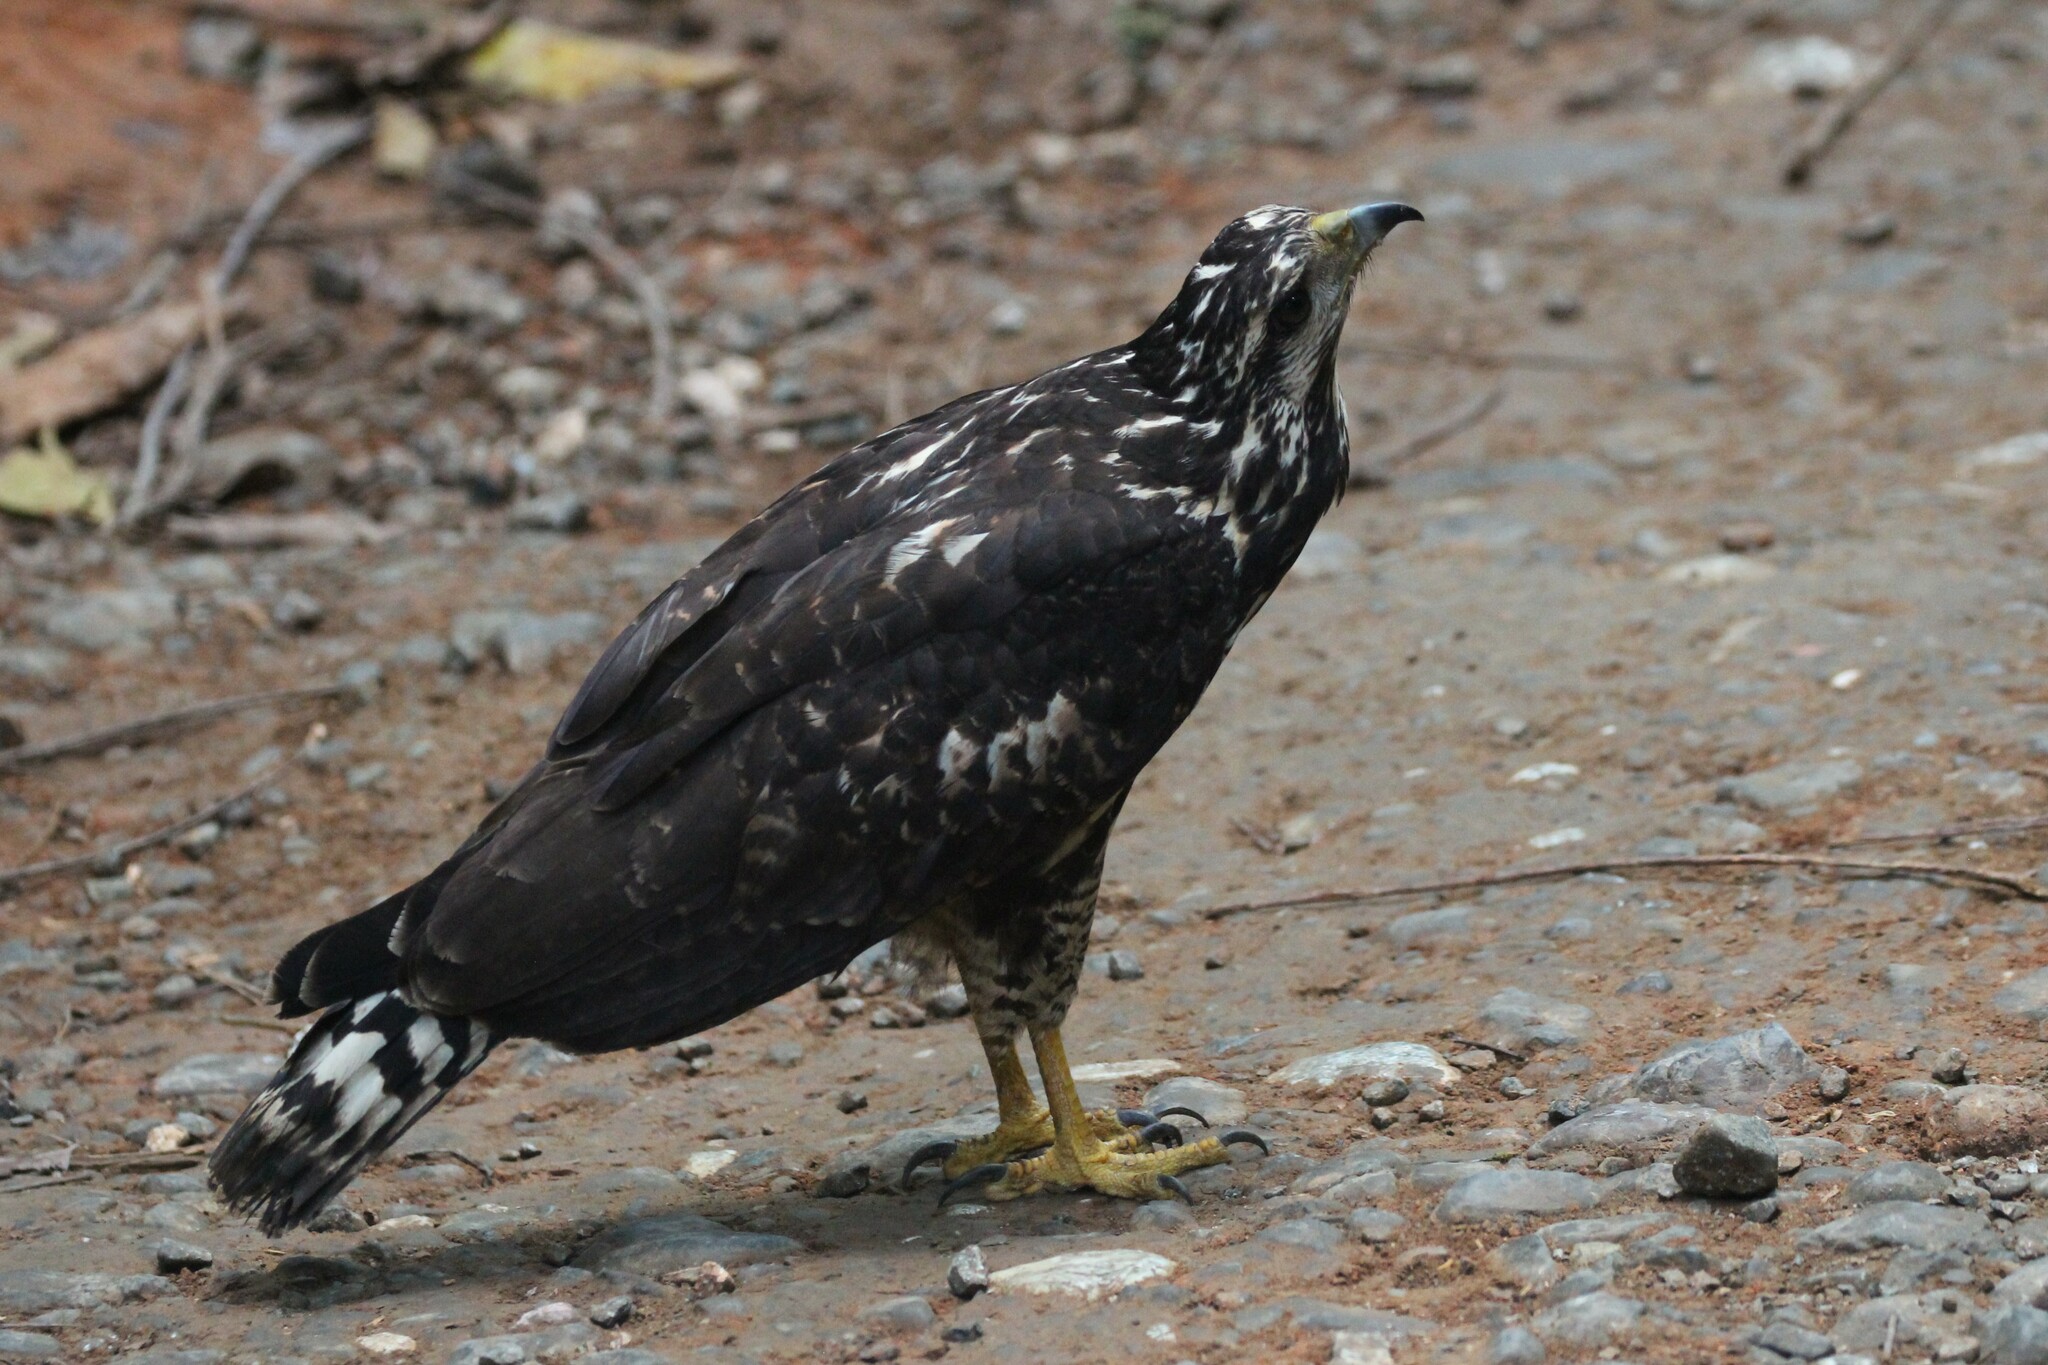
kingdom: Animalia
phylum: Chordata
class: Aves
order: Accipitriformes
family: Accipitridae
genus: Buteogallus
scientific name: Buteogallus anthracinus
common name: Common black hawk
